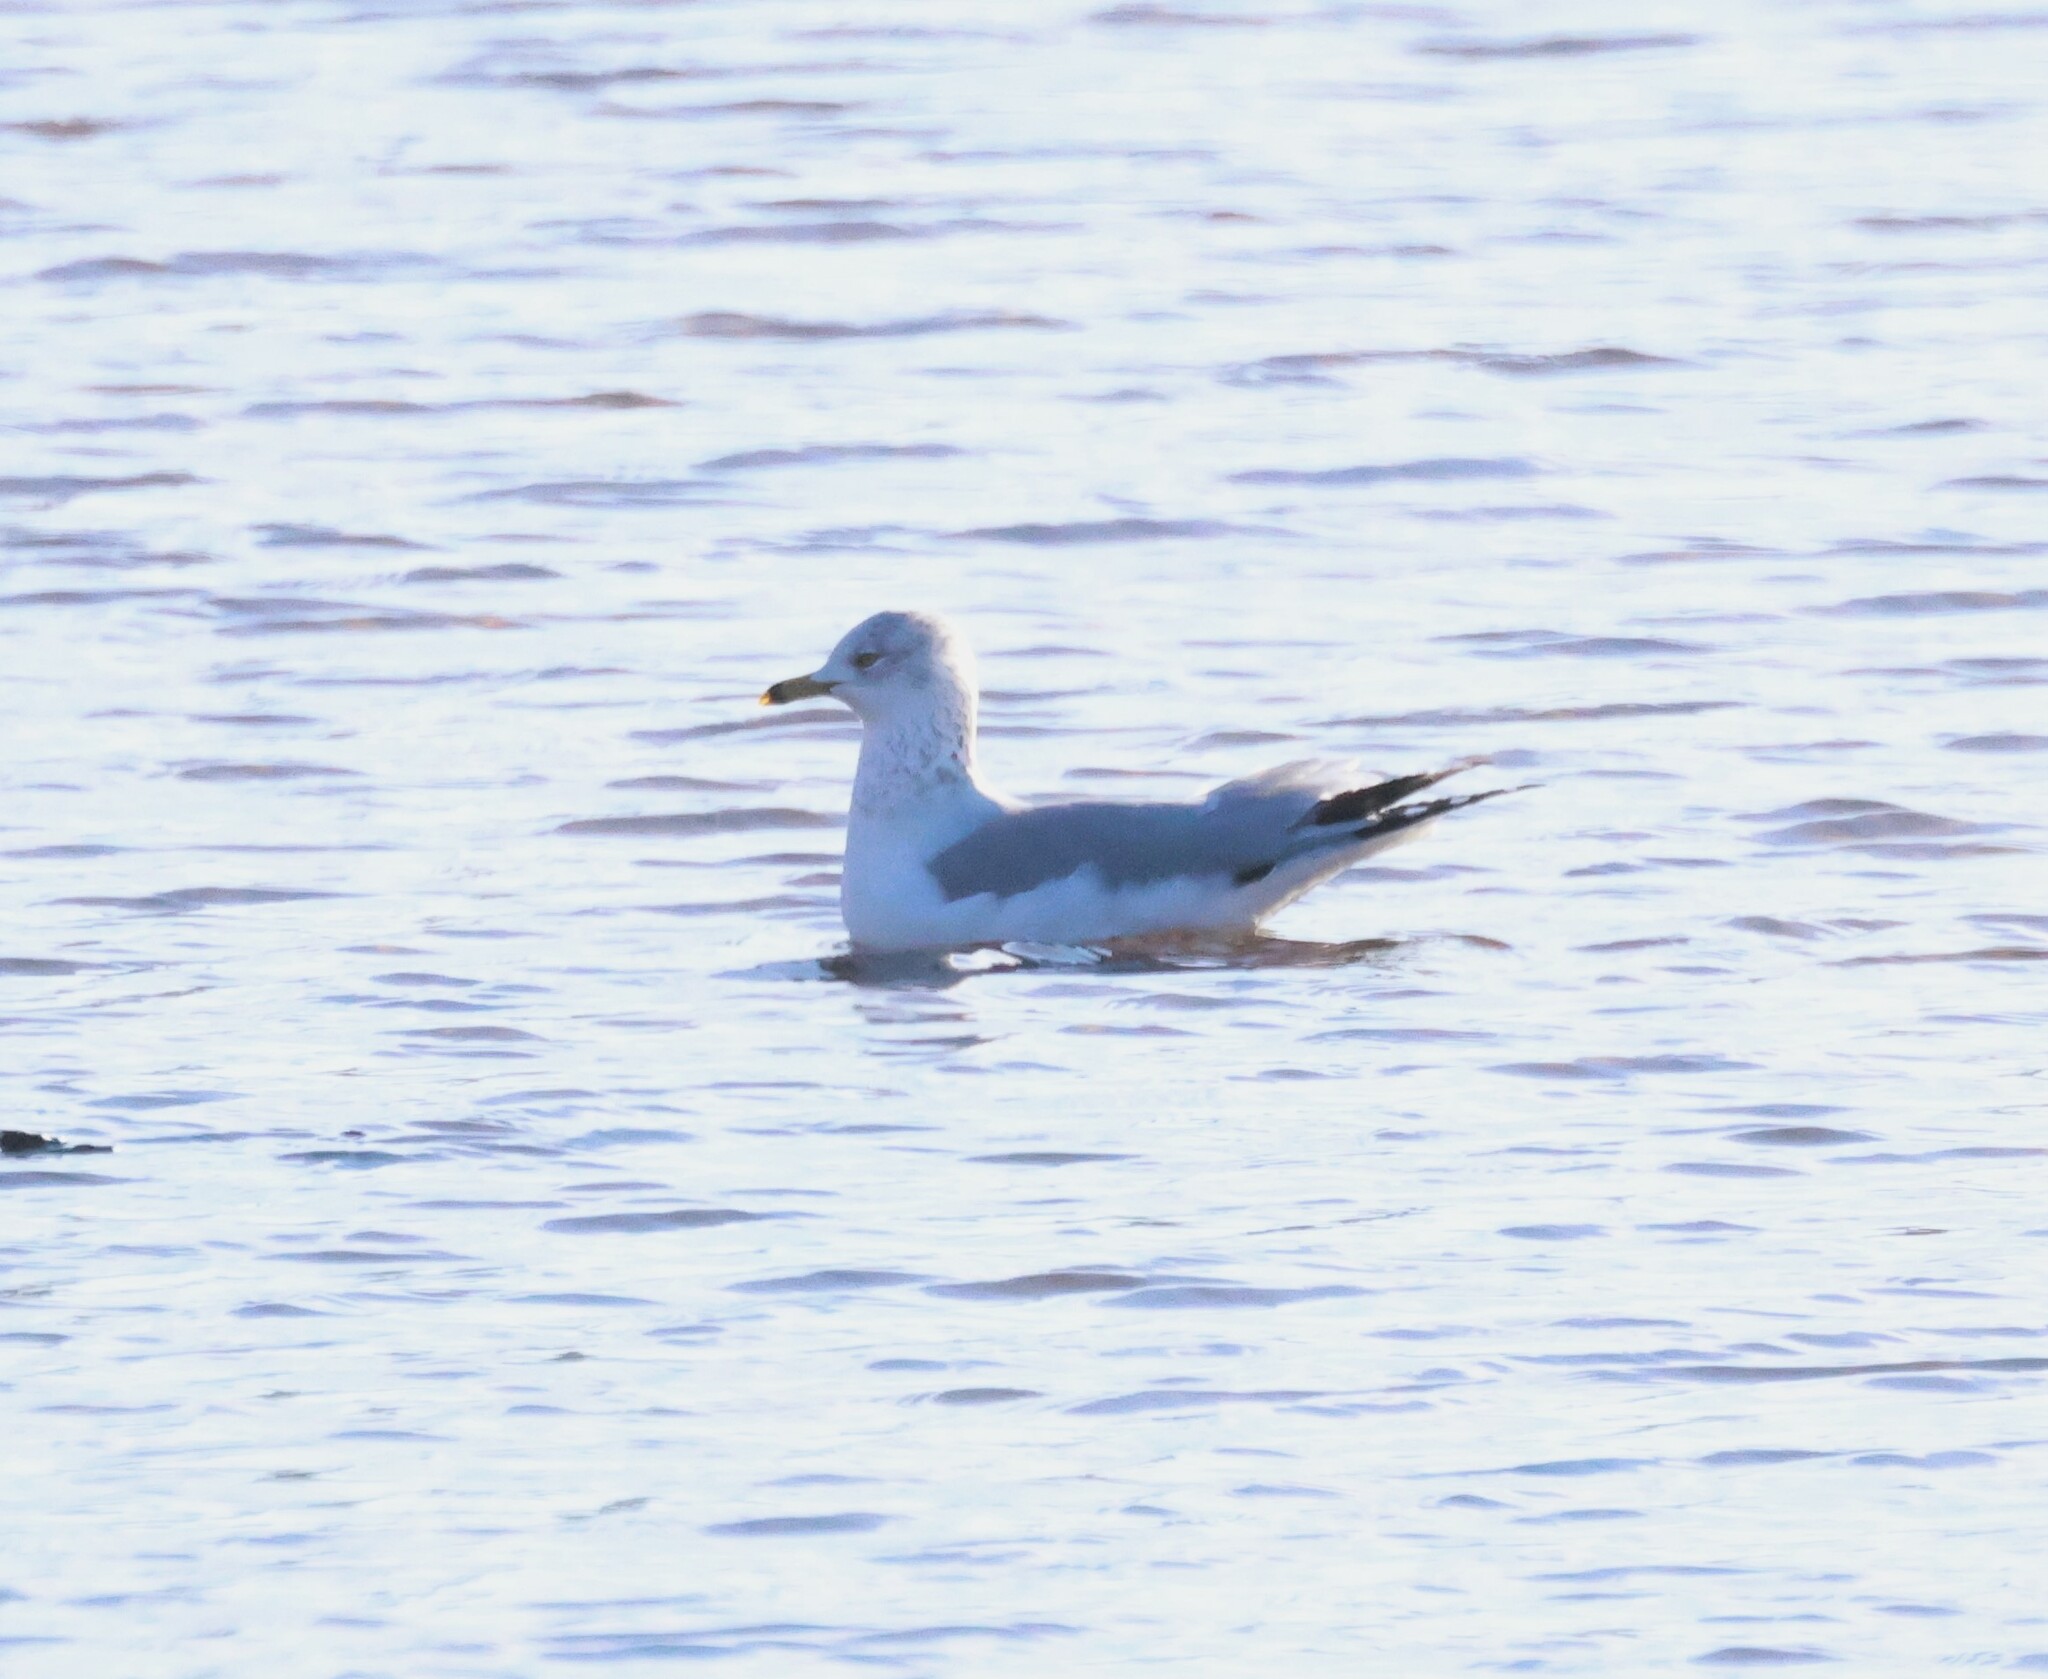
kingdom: Animalia
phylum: Chordata
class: Aves
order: Charadriiformes
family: Laridae
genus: Larus
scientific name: Larus delawarensis
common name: Ring-billed gull
